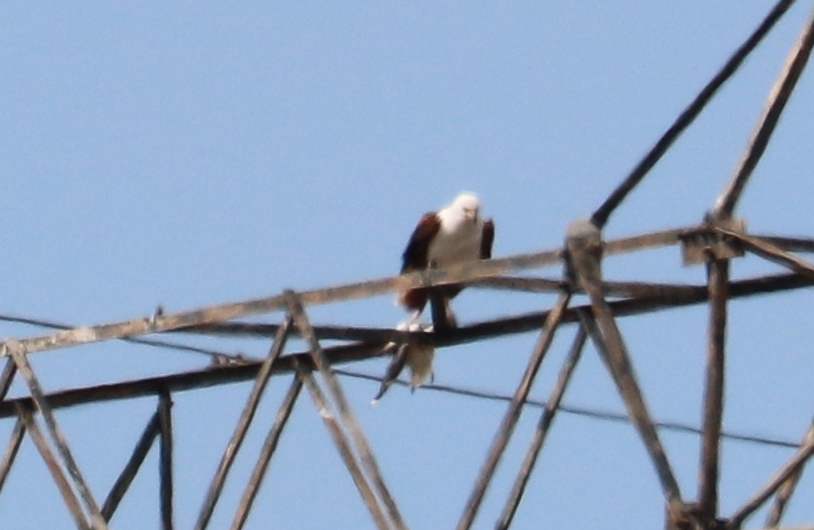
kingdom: Animalia
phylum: Chordata
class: Aves
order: Accipitriformes
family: Accipitridae
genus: Haliaeetus
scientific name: Haliaeetus vocifer
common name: African fish eagle
